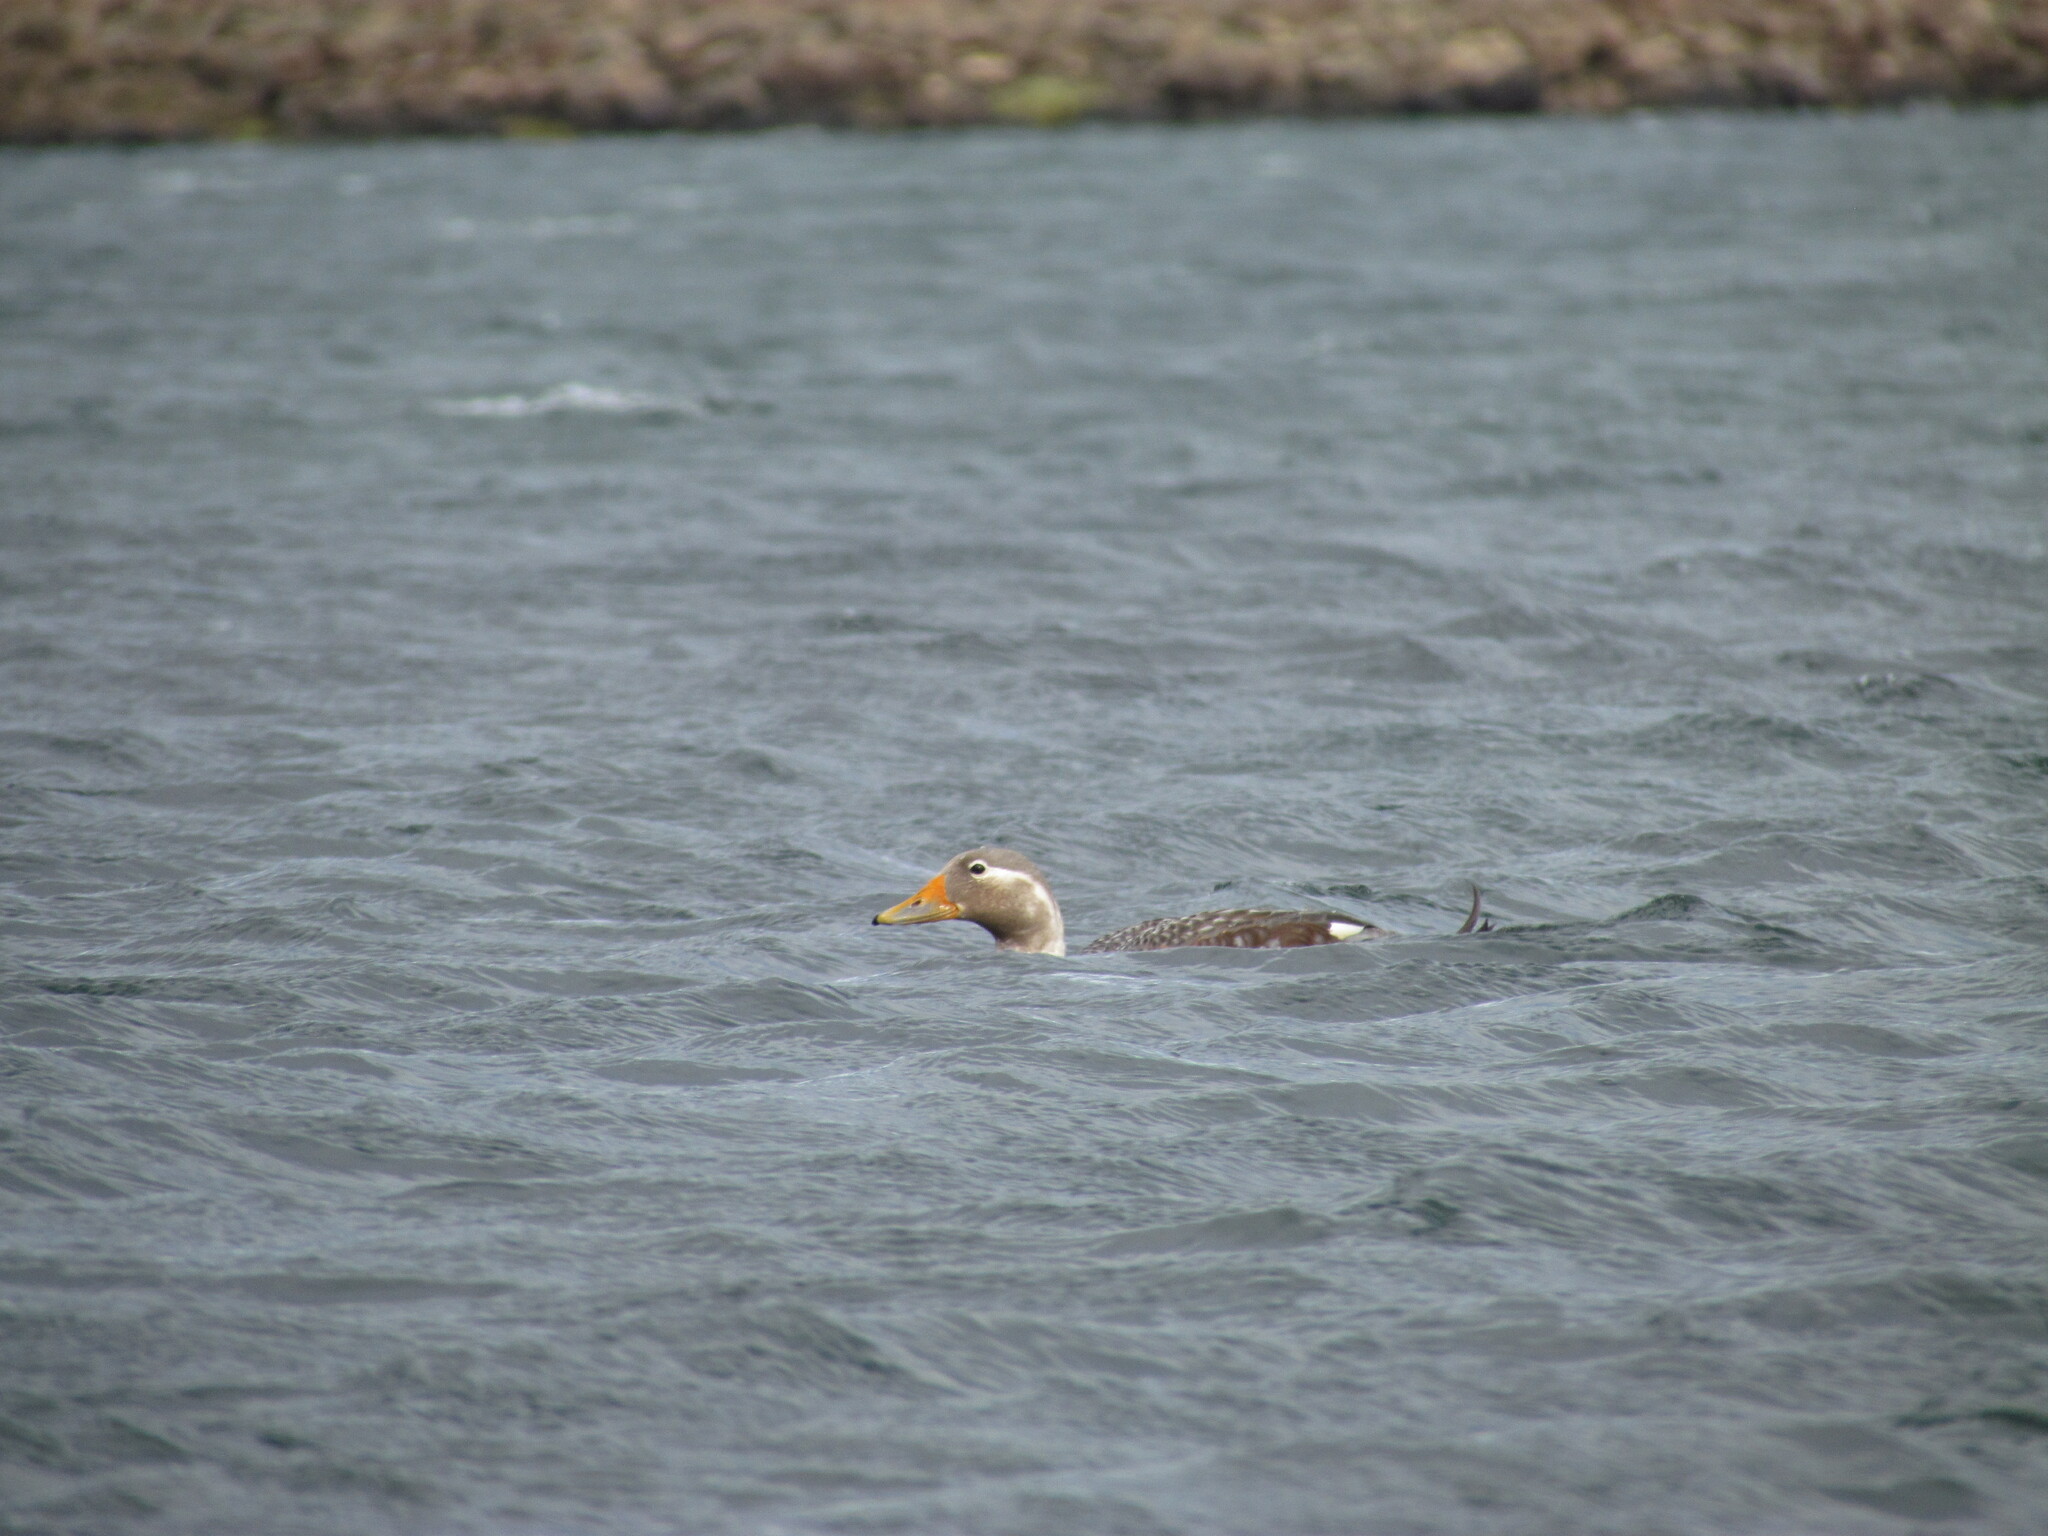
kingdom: Animalia
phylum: Chordata
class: Aves
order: Anseriformes
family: Anatidae
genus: Tachyeres
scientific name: Tachyeres patachonicus
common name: Flying steamer duck
